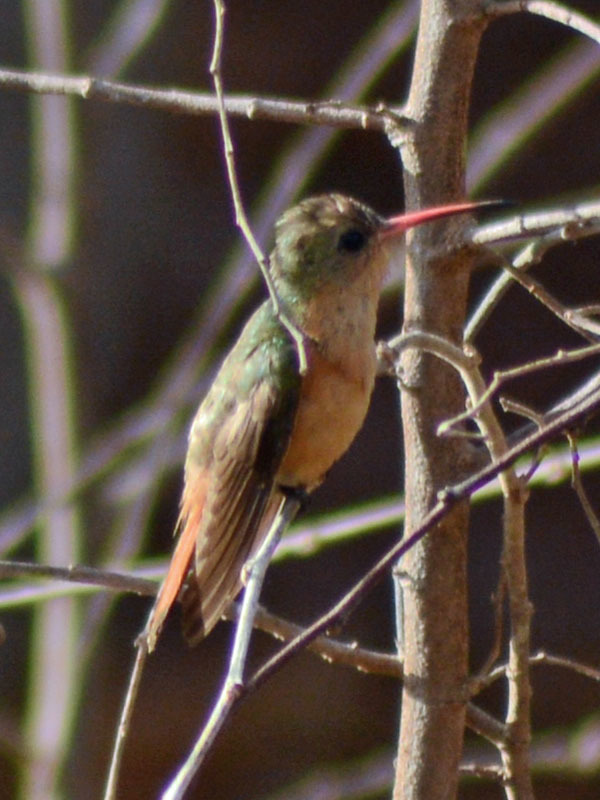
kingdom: Animalia
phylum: Chordata
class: Aves
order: Apodiformes
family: Trochilidae
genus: Amazilia
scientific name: Amazilia rutila
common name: Cinnamon hummingbird
